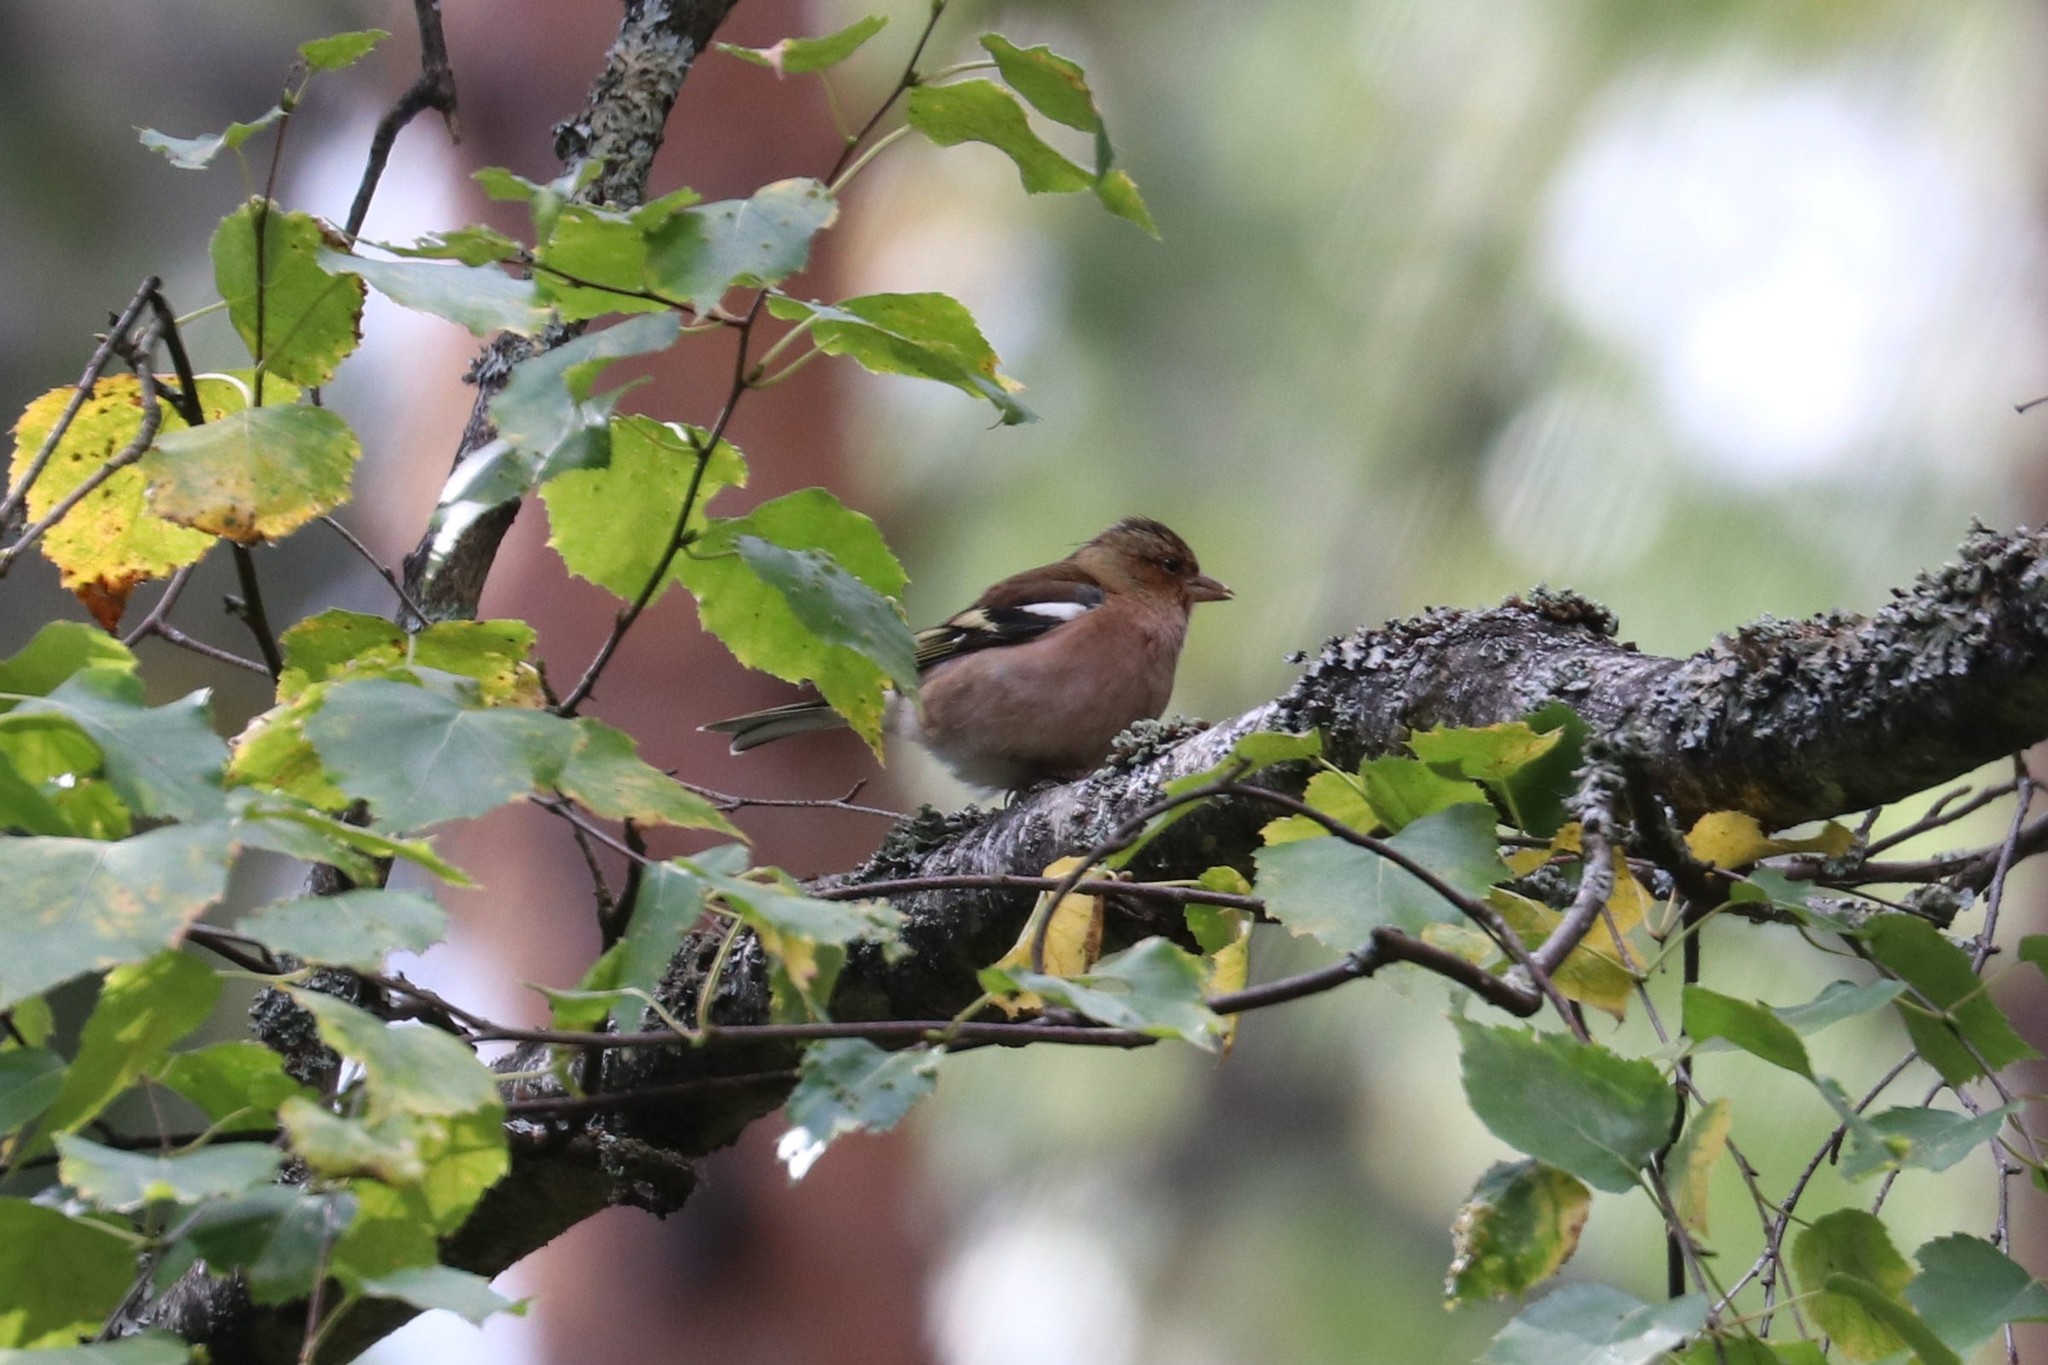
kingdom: Animalia
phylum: Chordata
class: Aves
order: Passeriformes
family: Fringillidae
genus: Fringilla
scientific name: Fringilla coelebs
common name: Common chaffinch
